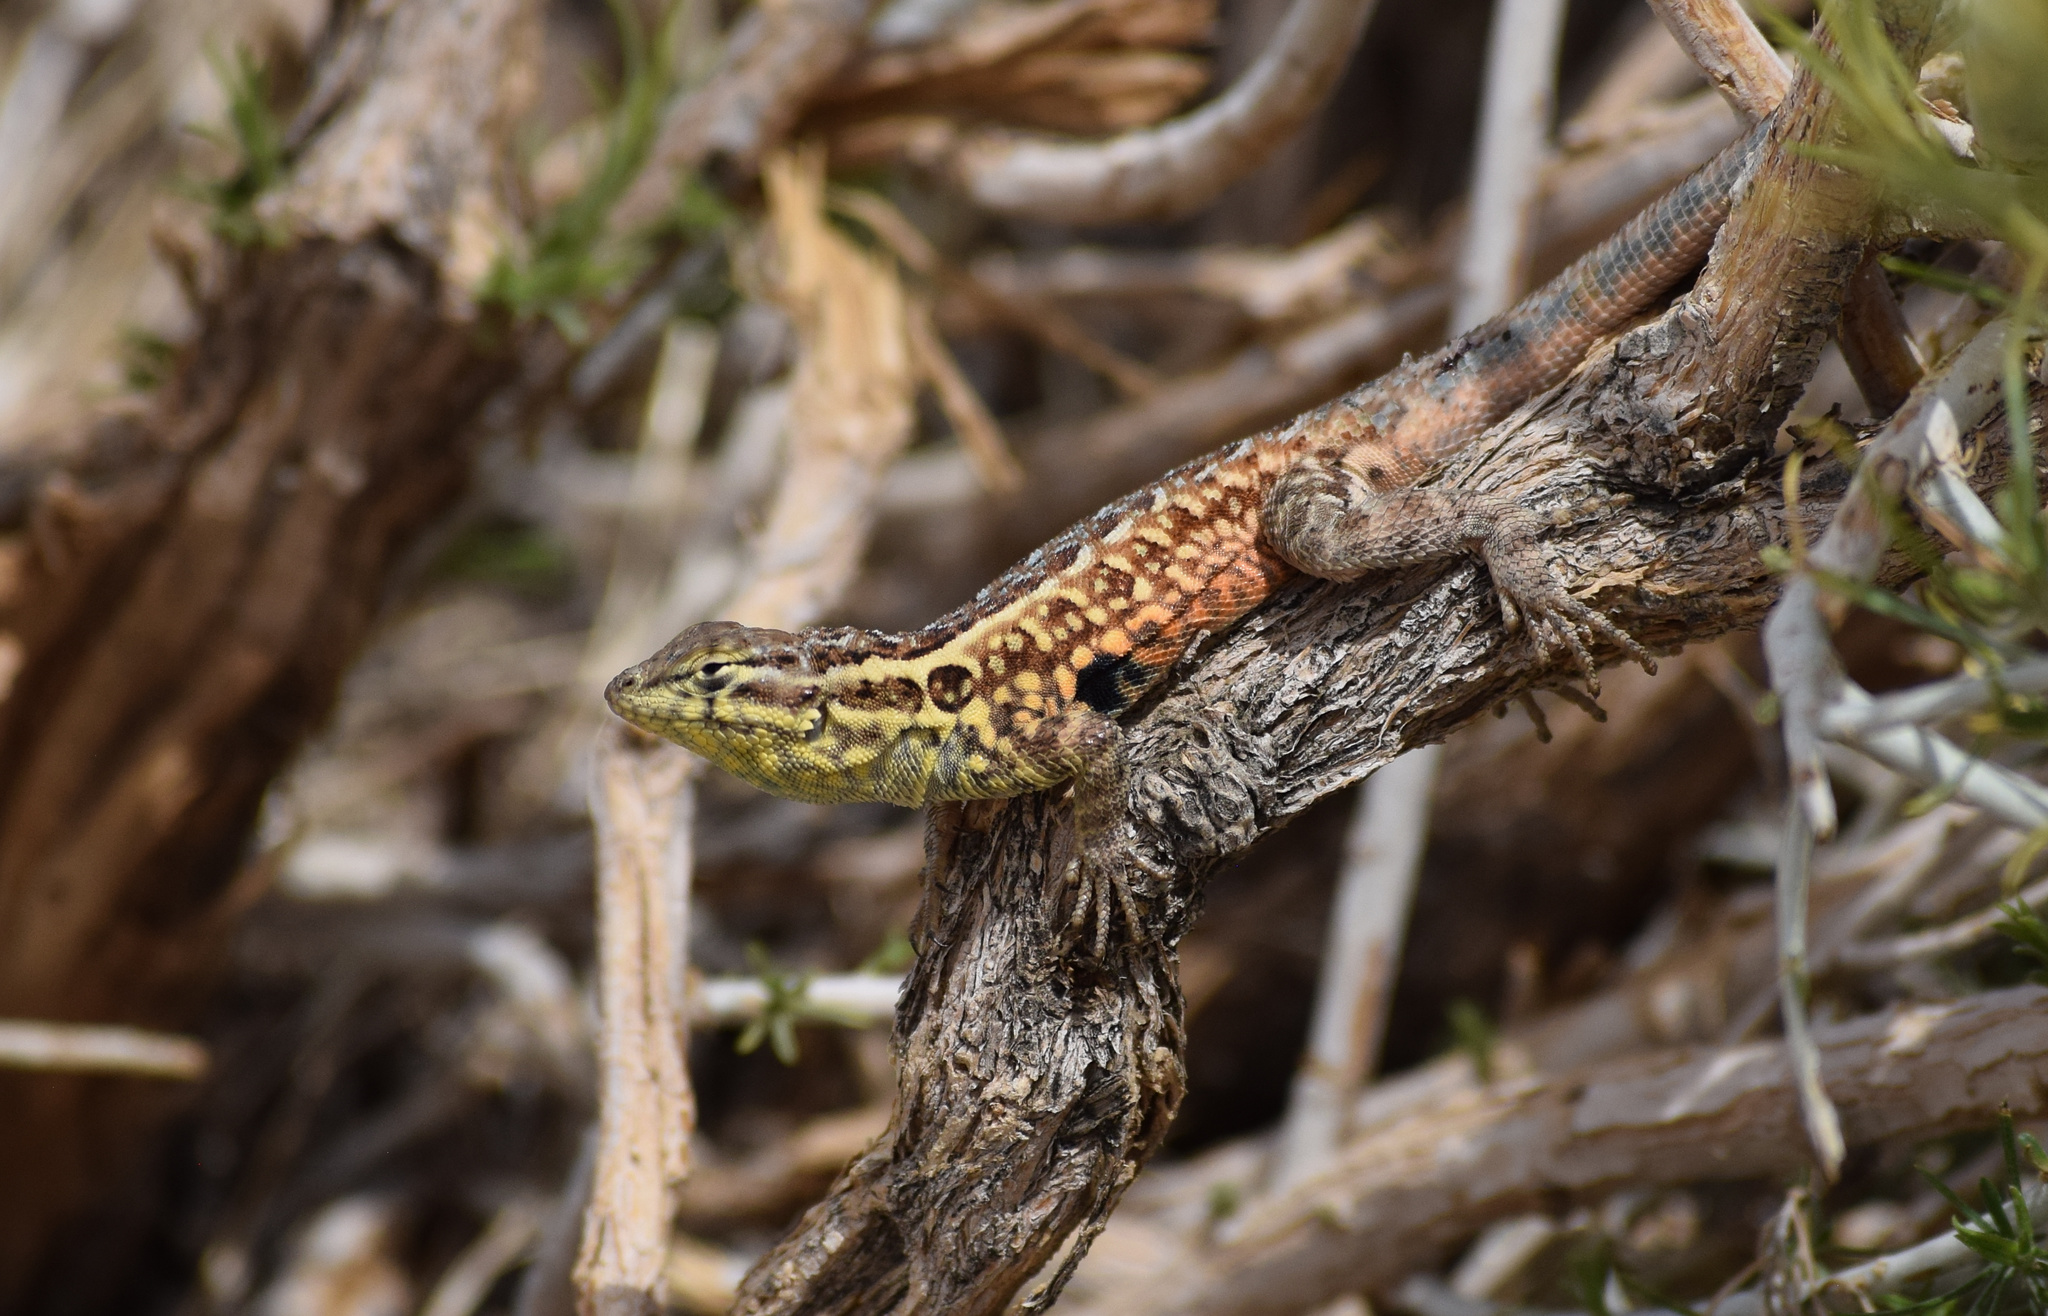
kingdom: Animalia
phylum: Chordata
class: Squamata
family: Phrynosomatidae
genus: Uta
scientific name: Uta stansburiana
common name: Side-blotched lizard
